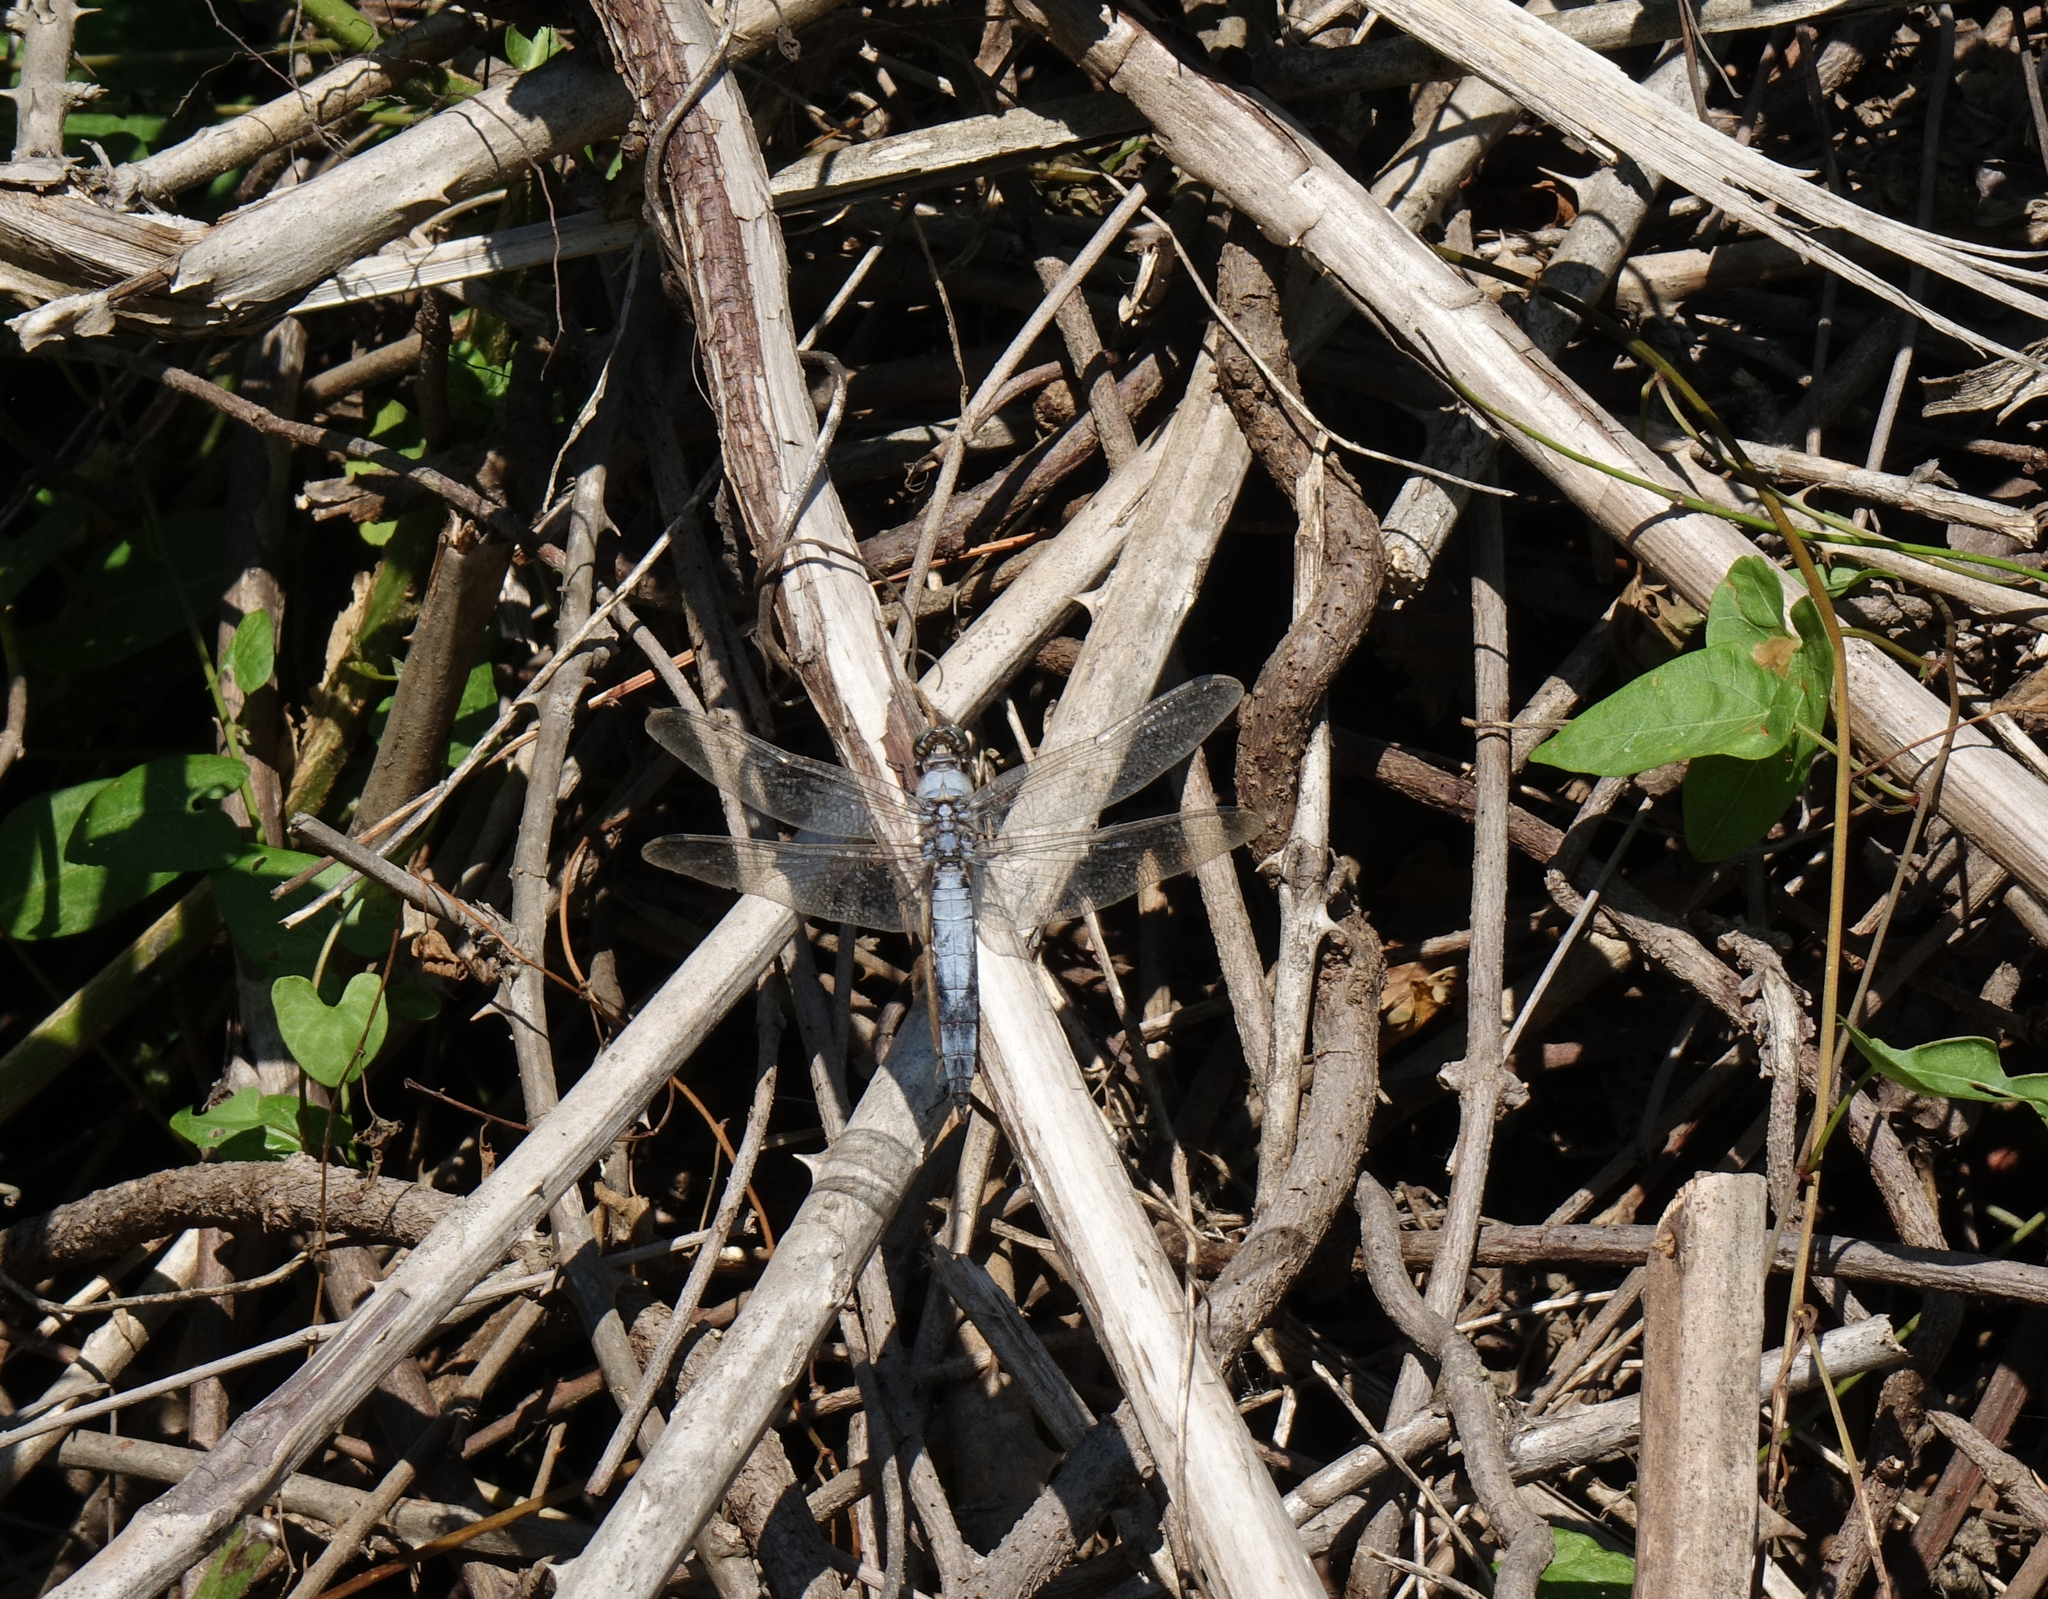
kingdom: Animalia
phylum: Arthropoda
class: Insecta
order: Odonata
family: Libellulidae
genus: Orthetrum
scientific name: Orthetrum cancellatum
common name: Black-tailed skimmer
